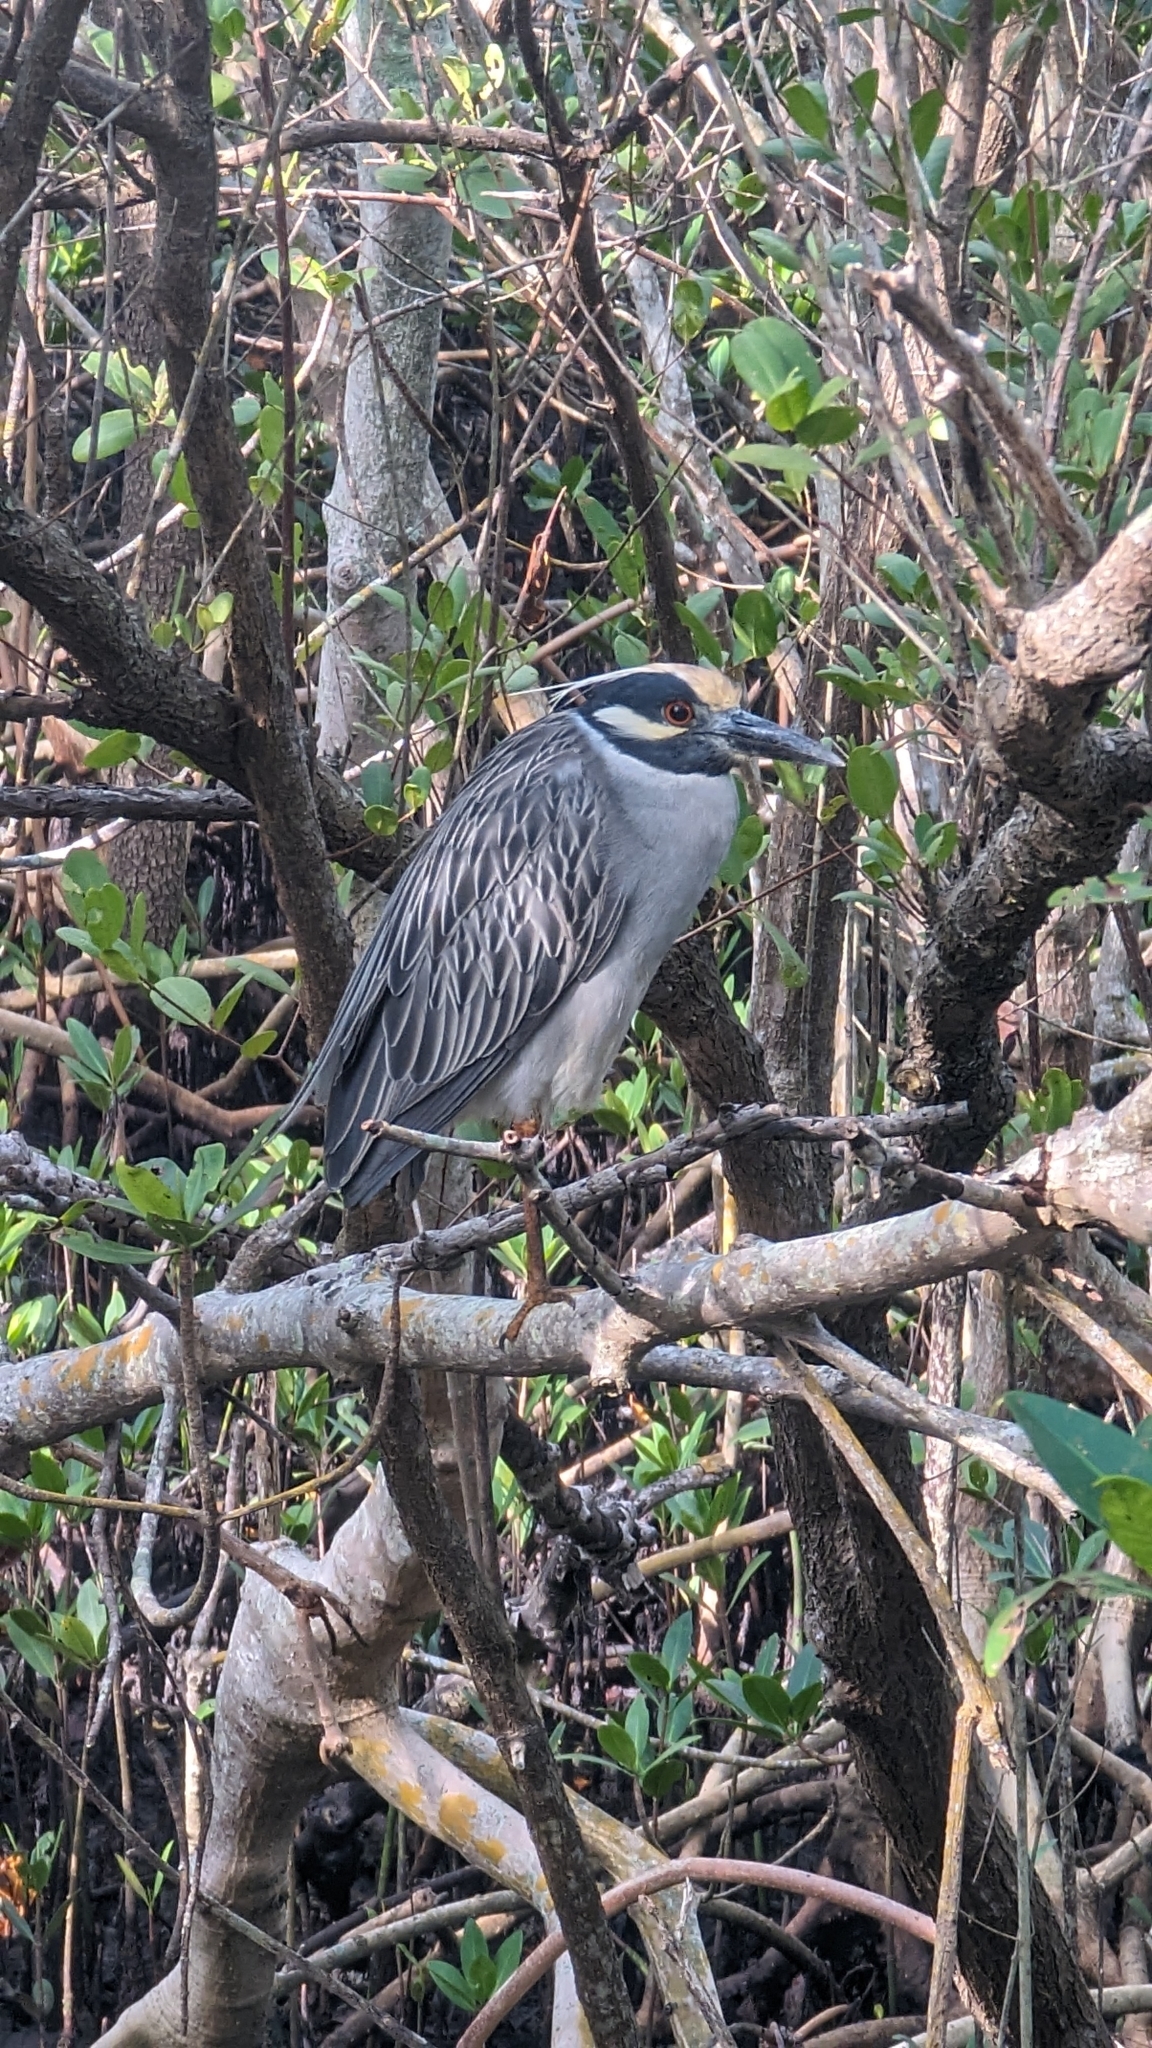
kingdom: Animalia
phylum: Chordata
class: Aves
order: Pelecaniformes
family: Ardeidae
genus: Nyctanassa
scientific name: Nyctanassa violacea
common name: Yellow-crowned night heron
